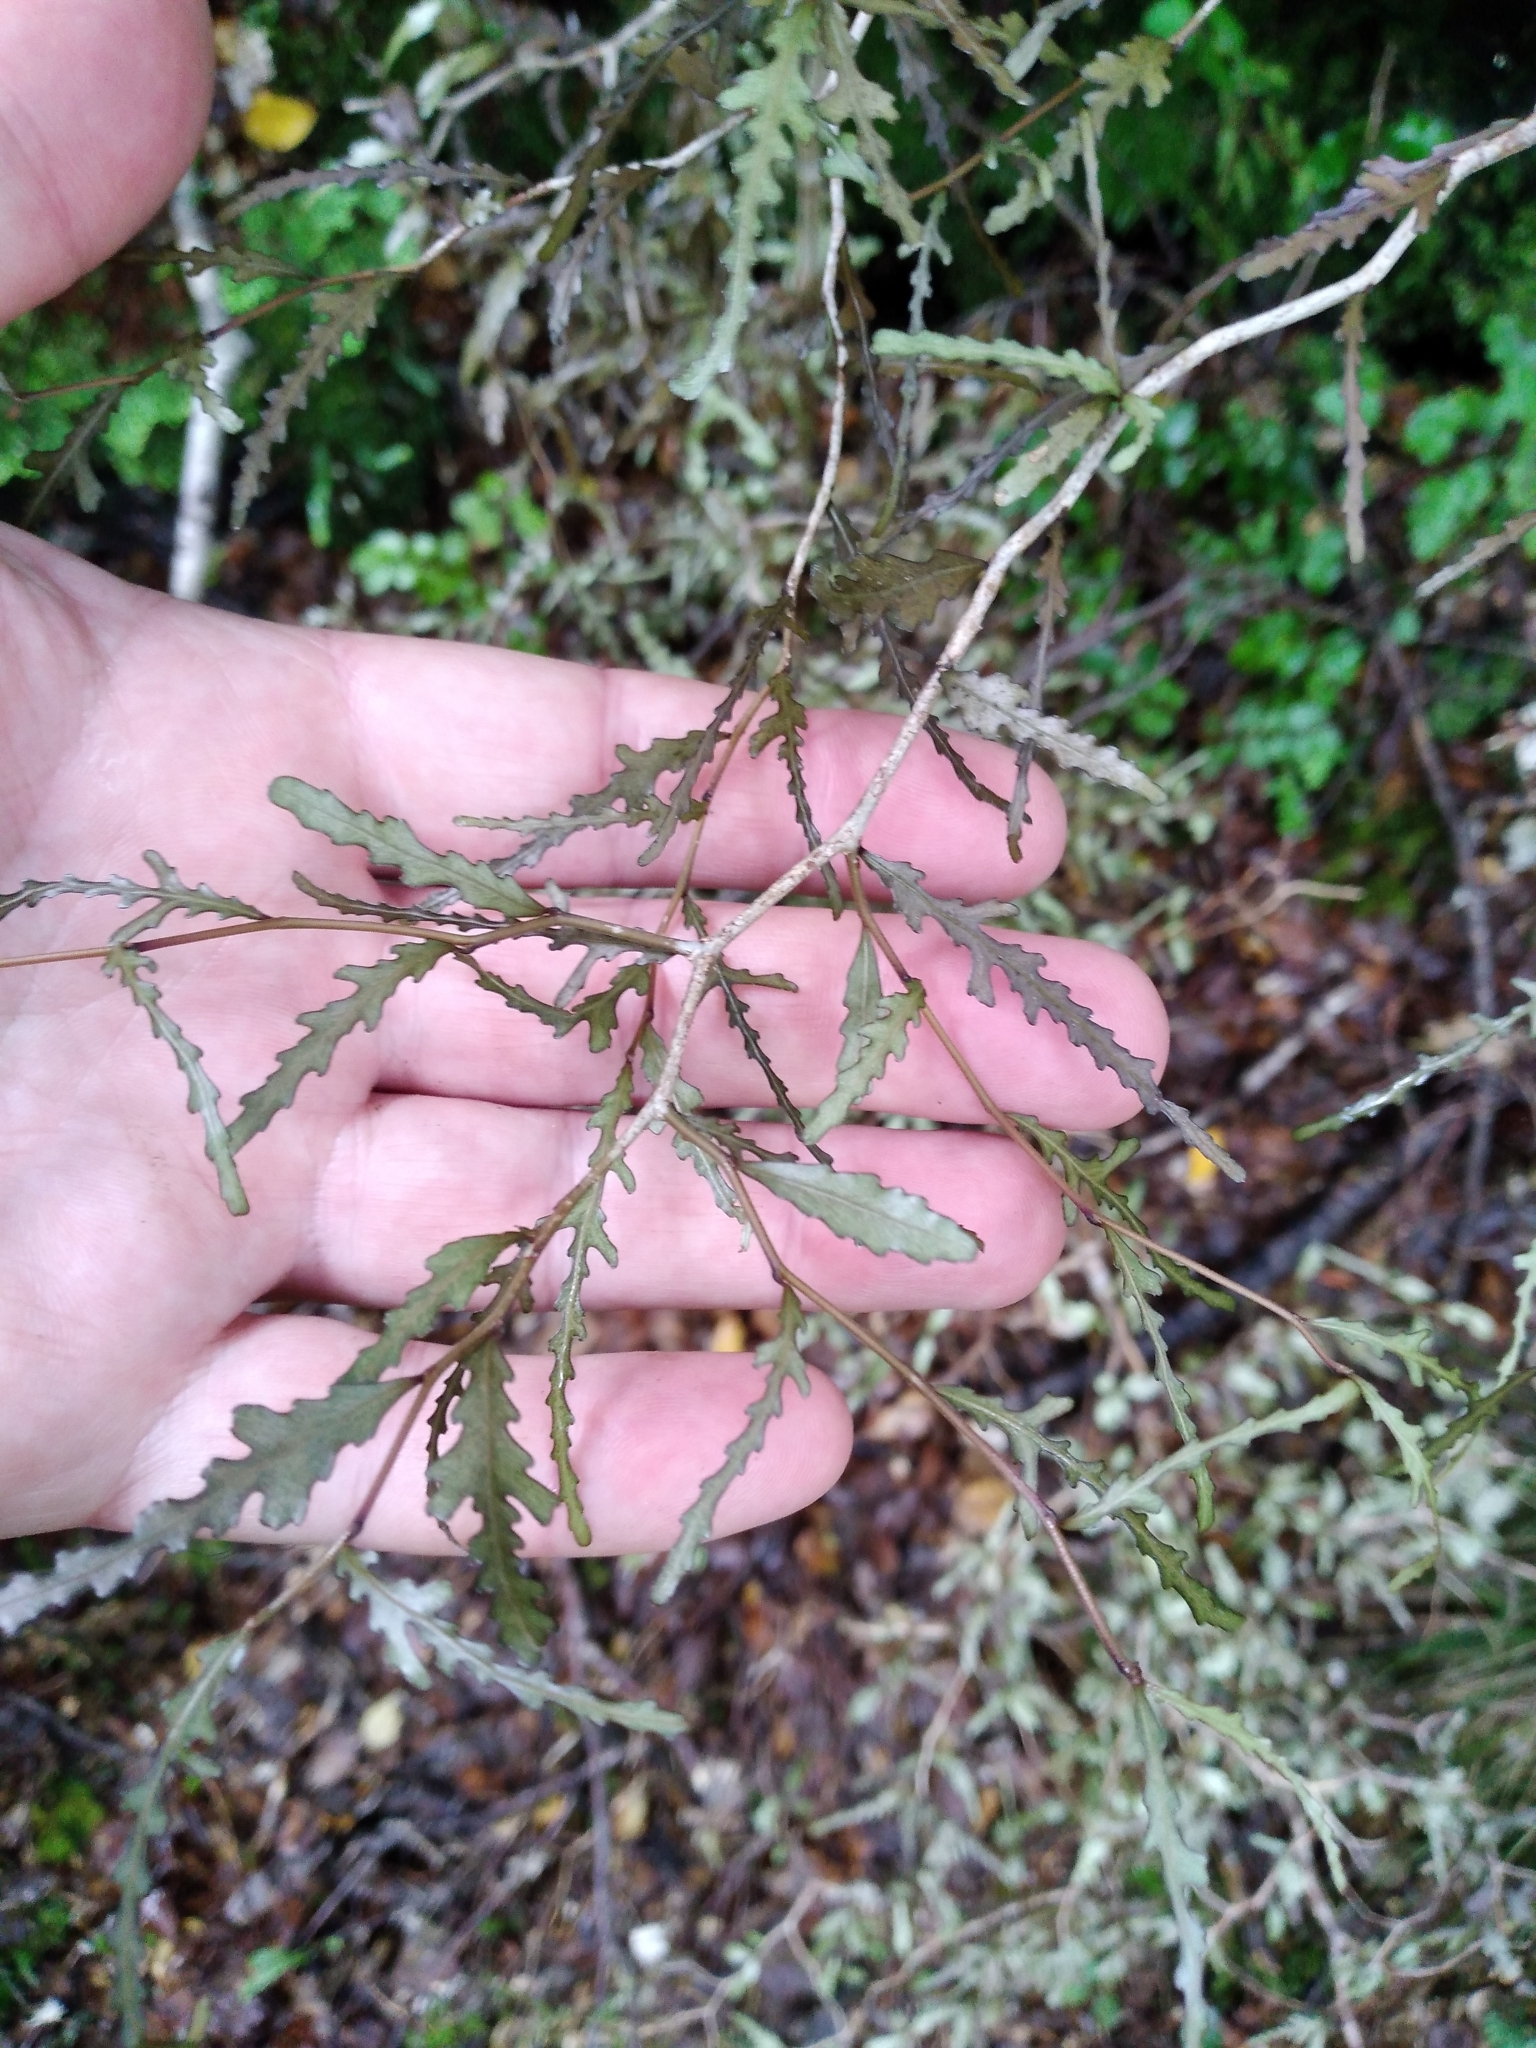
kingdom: Plantae
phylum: Tracheophyta
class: Magnoliopsida
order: Oxalidales
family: Elaeocarpaceae
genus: Elaeocarpus
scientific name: Elaeocarpus hookerianus
